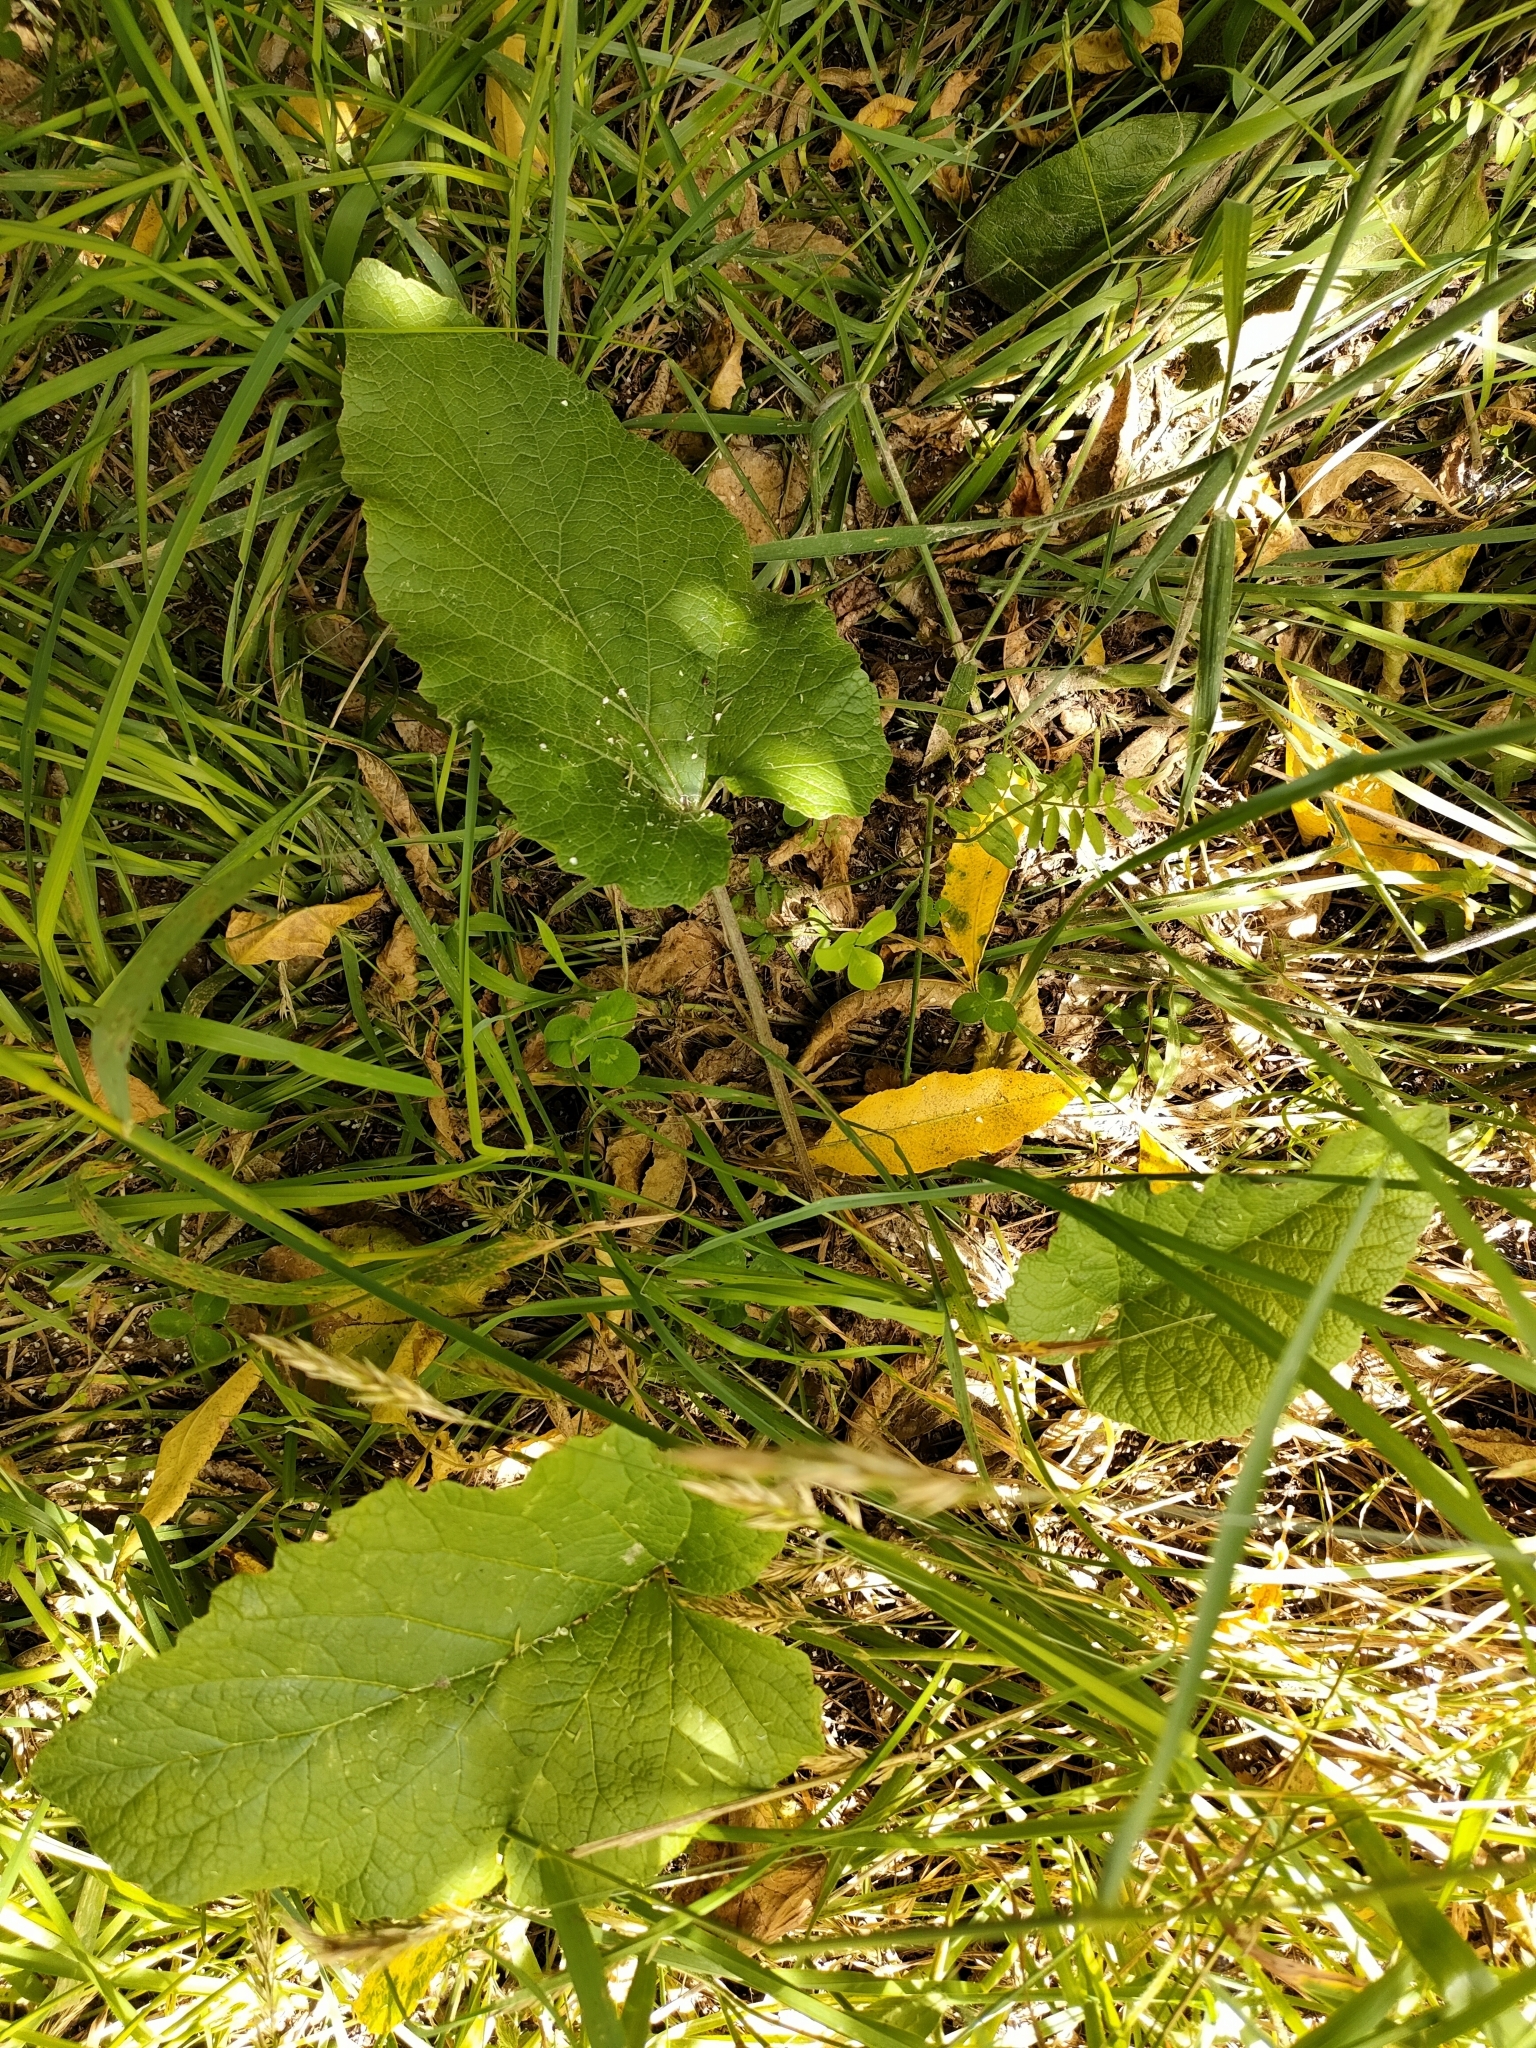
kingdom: Plantae
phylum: Tracheophyta
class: Magnoliopsida
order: Asterales
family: Asteraceae
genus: Arctium
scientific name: Arctium minus
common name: Lesser burdock
